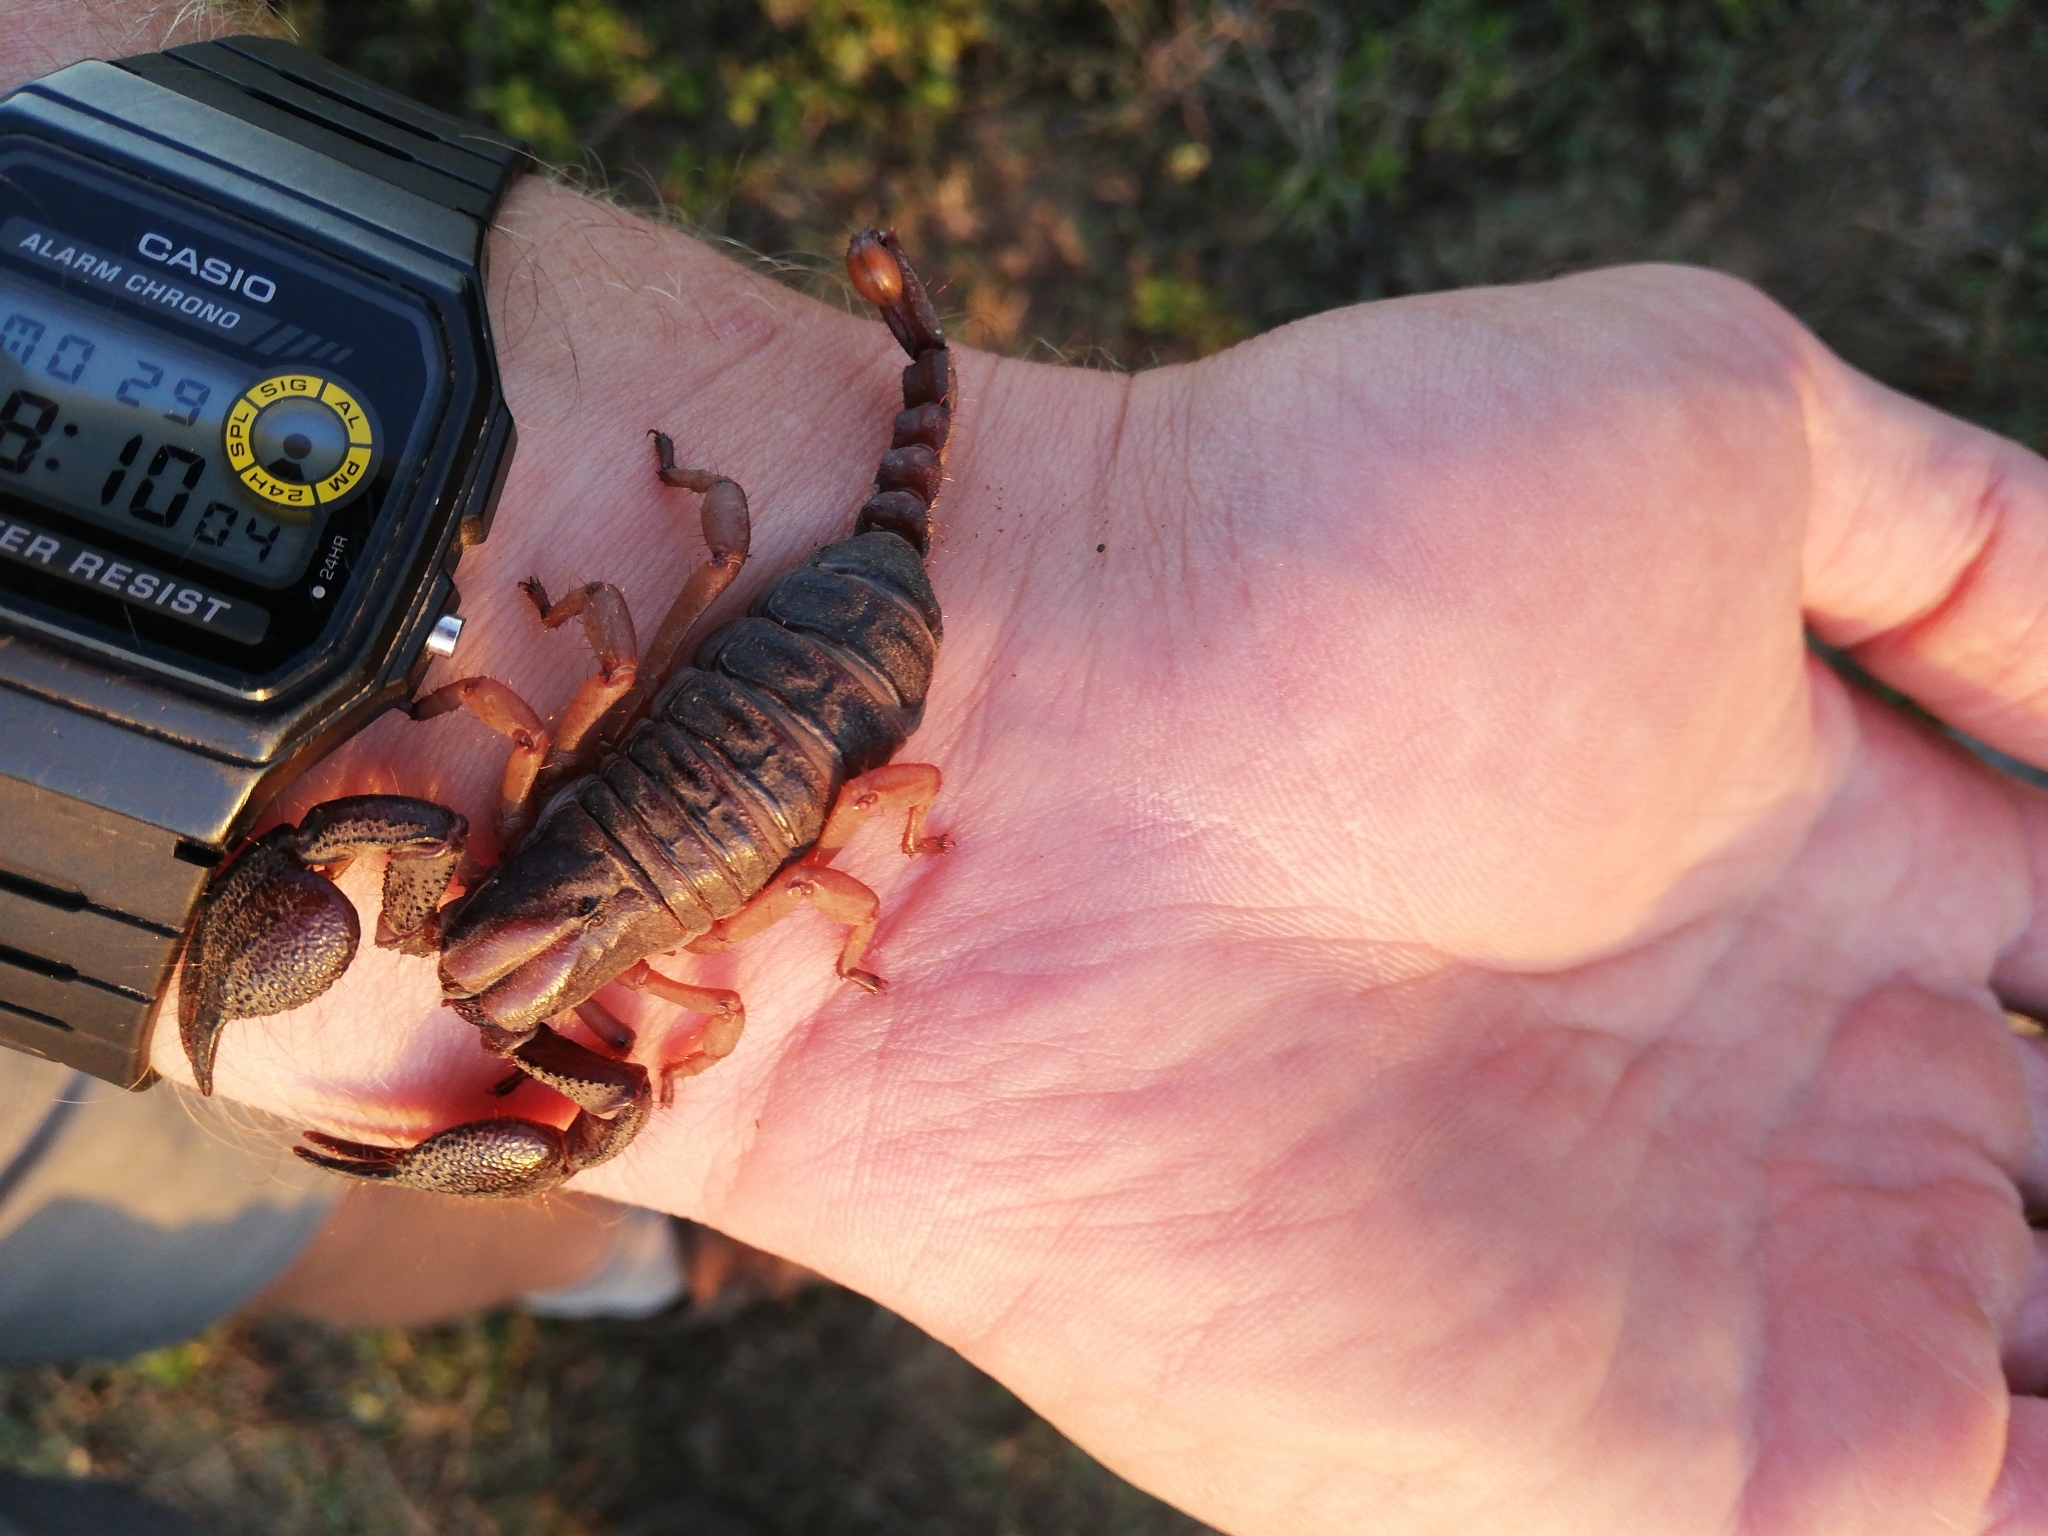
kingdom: Animalia
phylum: Arthropoda
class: Arachnida
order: Scorpiones
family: Scorpionidae
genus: Opistophthalmus
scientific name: Opistophthalmus latimanus
